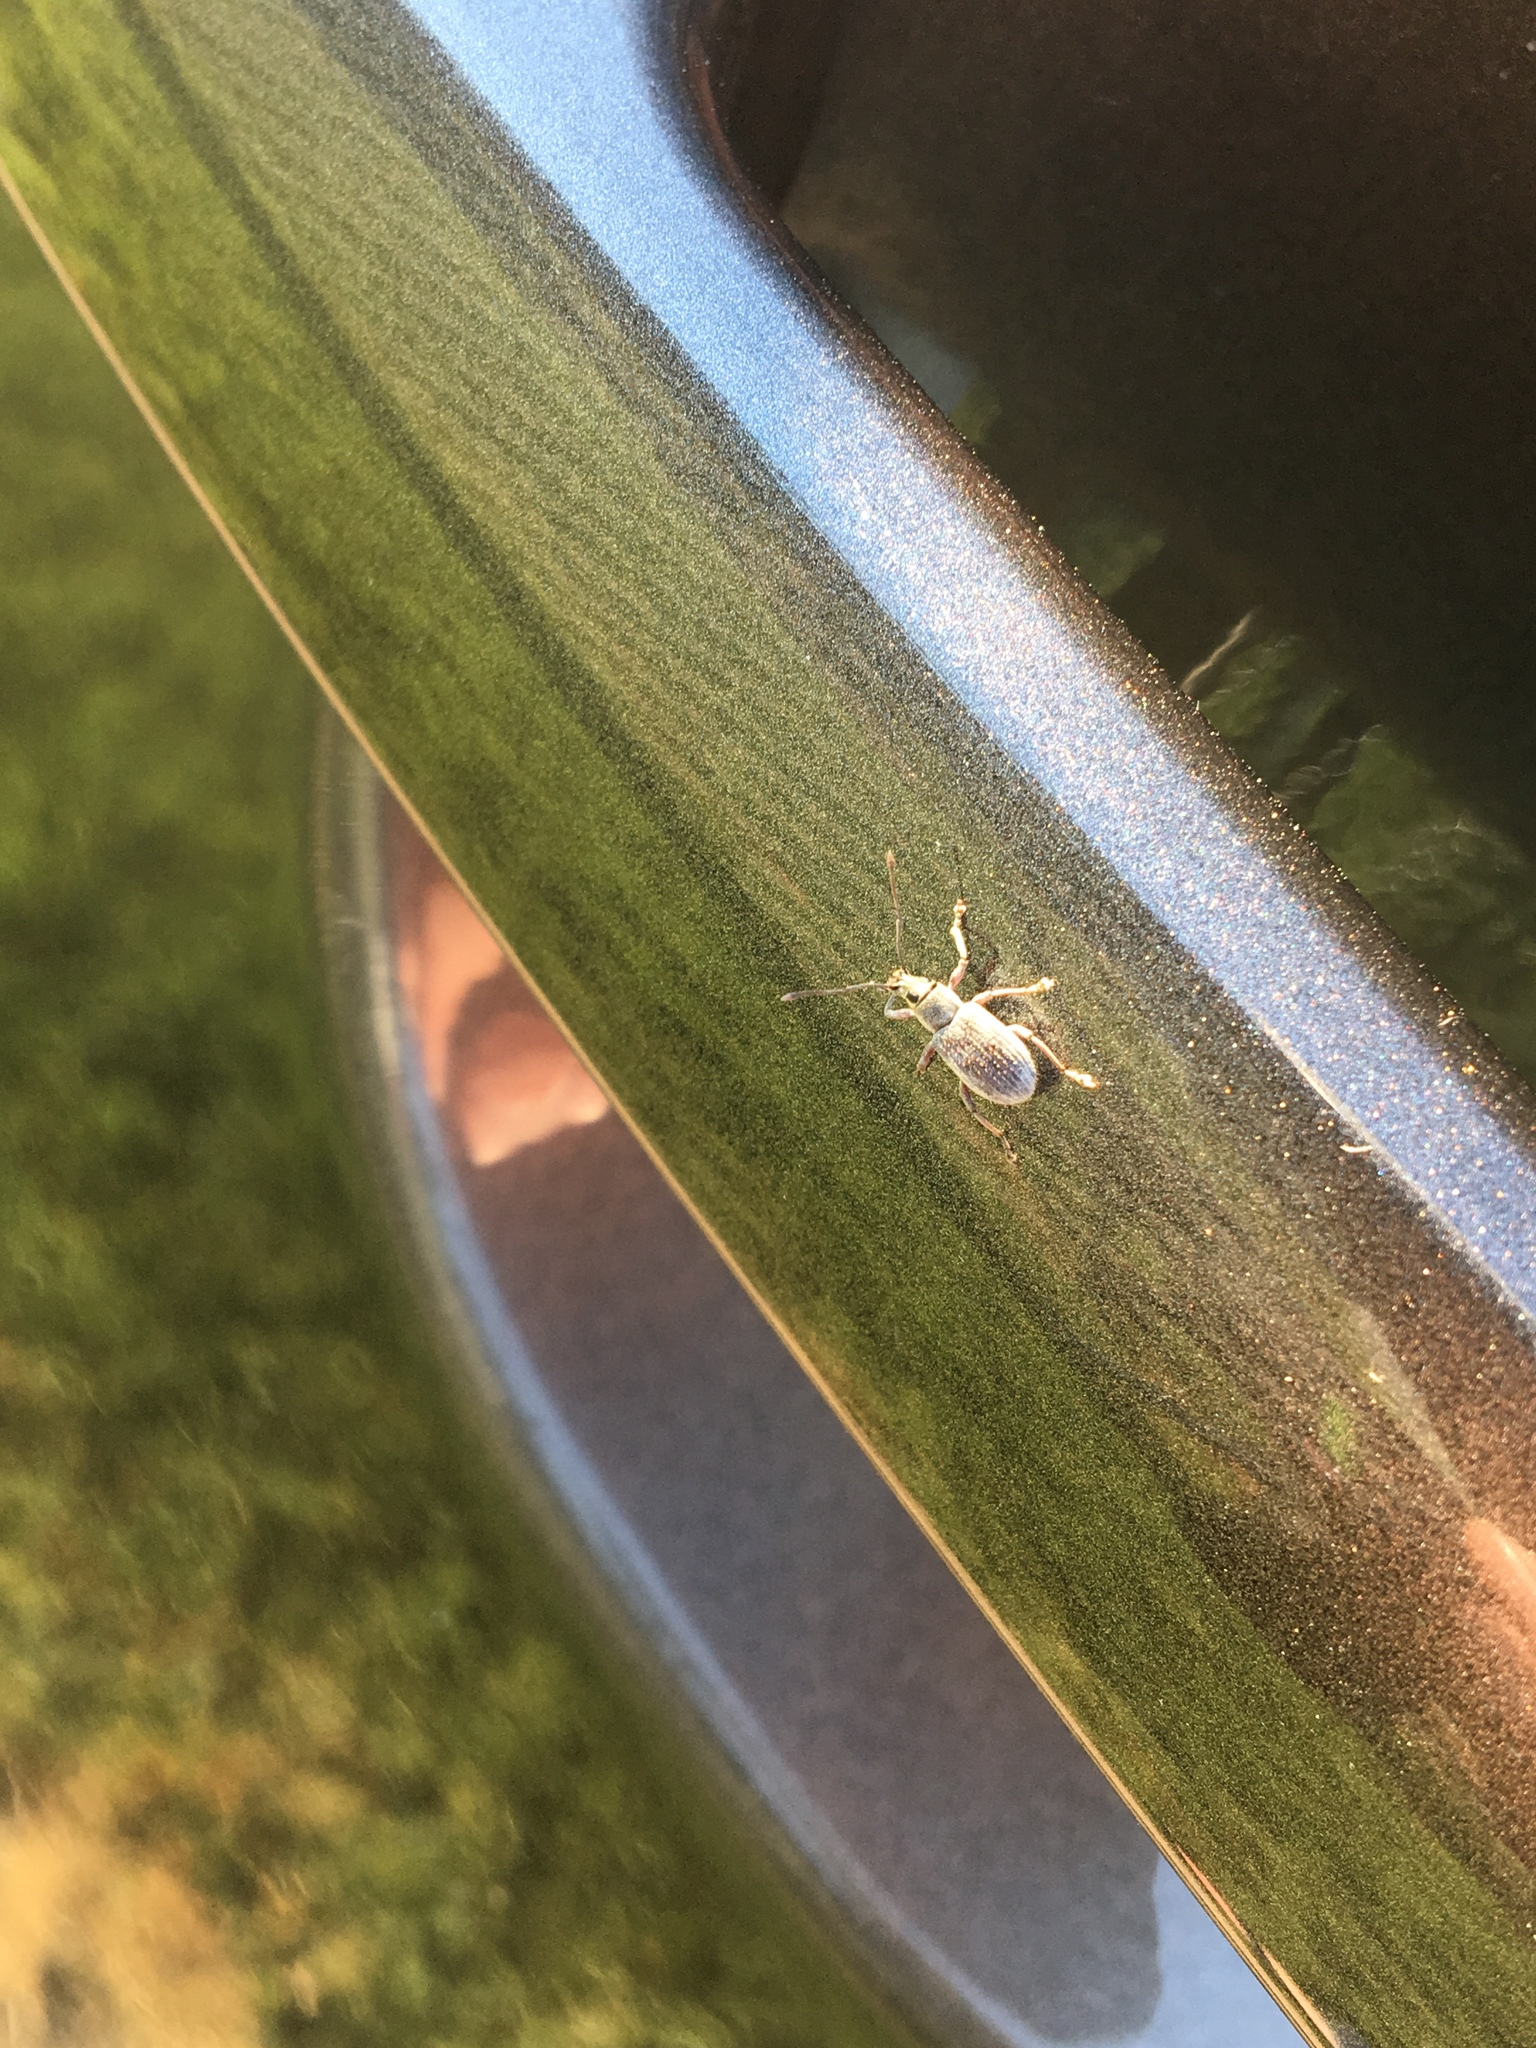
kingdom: Animalia
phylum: Arthropoda
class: Insecta
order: Coleoptera
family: Curculionidae
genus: Cyrtepistomus
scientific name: Cyrtepistomus castaneus
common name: Weevil
